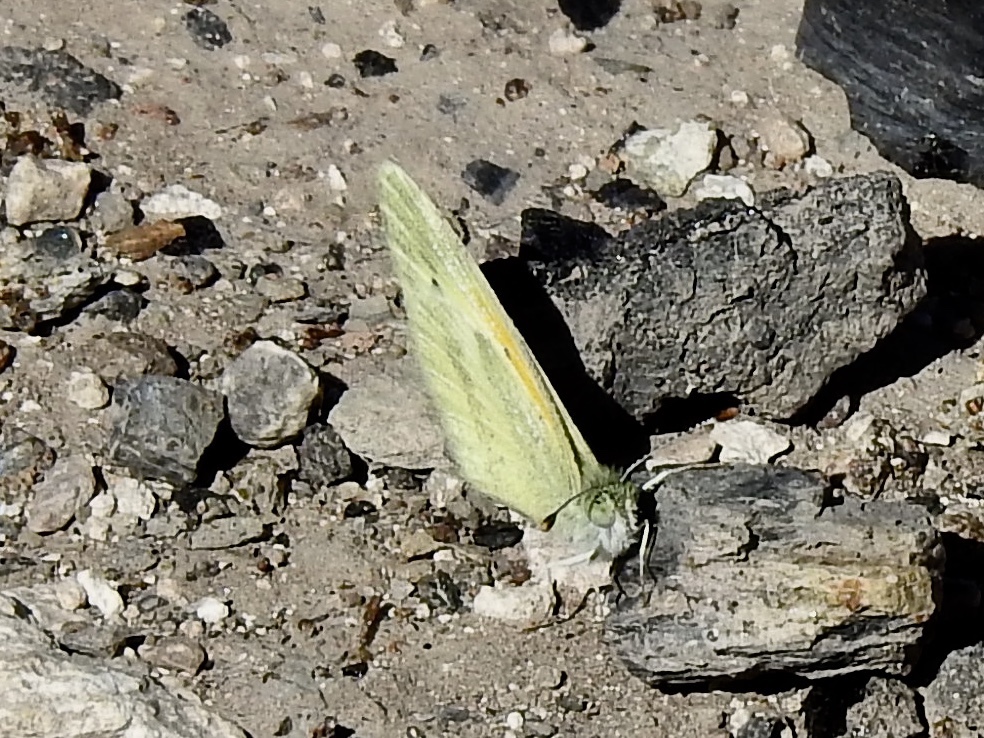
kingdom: Animalia
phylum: Arthropoda
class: Insecta
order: Lepidoptera
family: Pieridae
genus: Nathalis
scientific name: Nathalis iole
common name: Dainty sulphur
